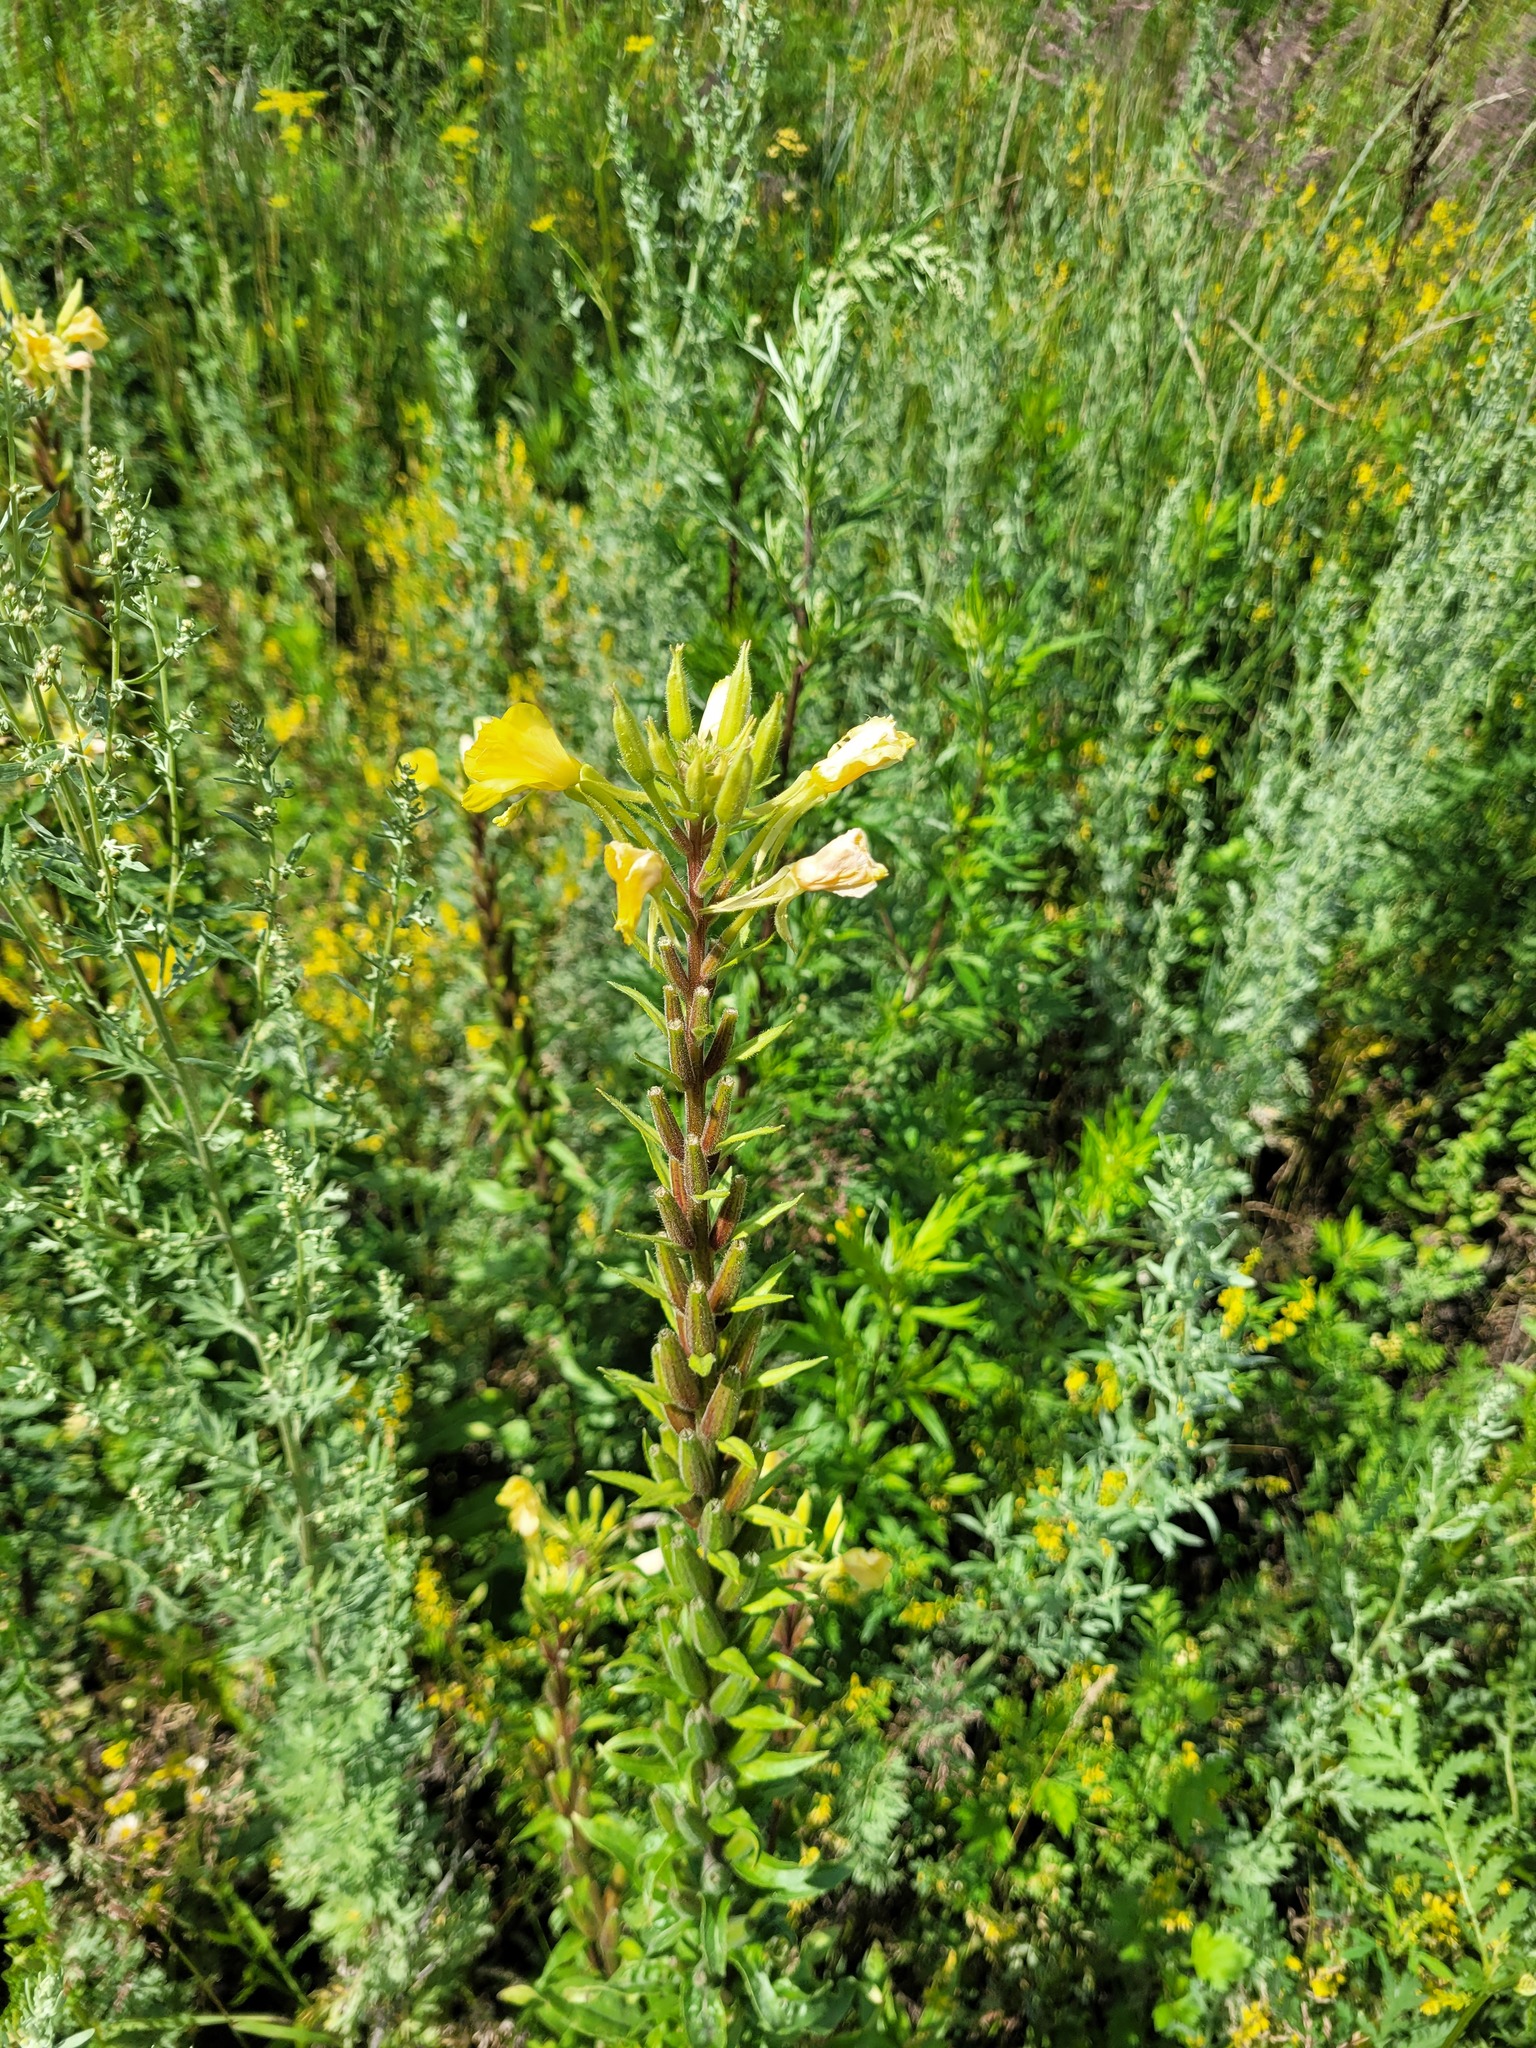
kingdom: Plantae
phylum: Tracheophyta
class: Magnoliopsida
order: Myrtales
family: Onagraceae
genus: Oenothera
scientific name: Oenothera rubricaulis
